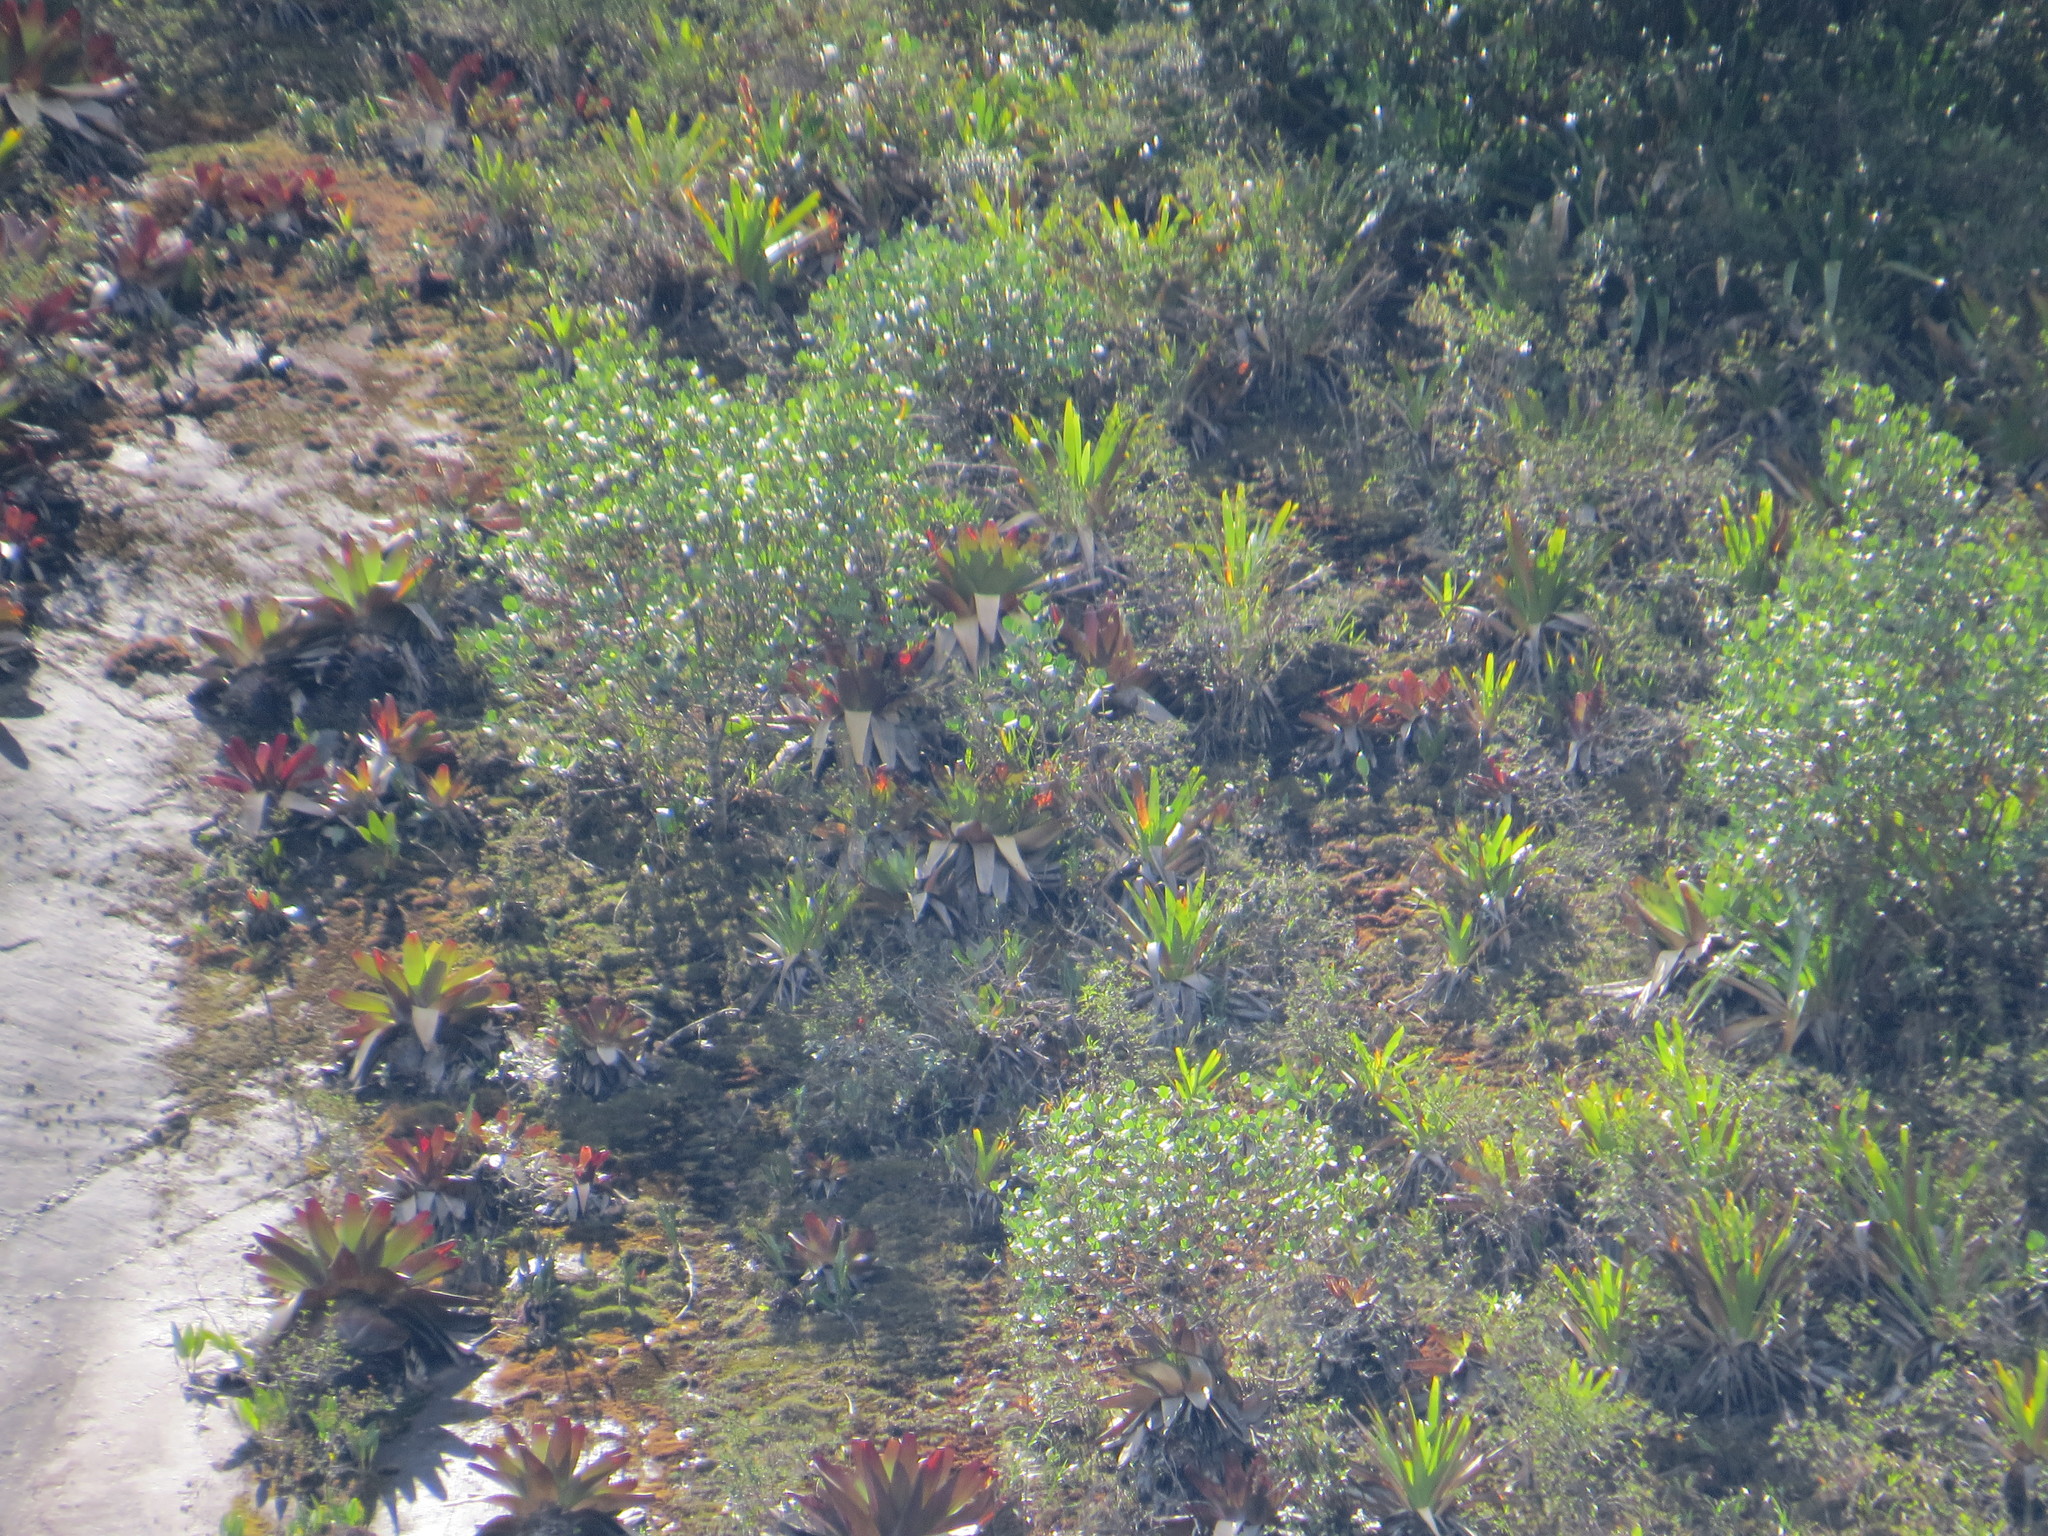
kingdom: Plantae
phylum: Tracheophyta
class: Liliopsida
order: Poales
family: Bromeliaceae
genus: Alcantarea
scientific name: Alcantarea geniculata
